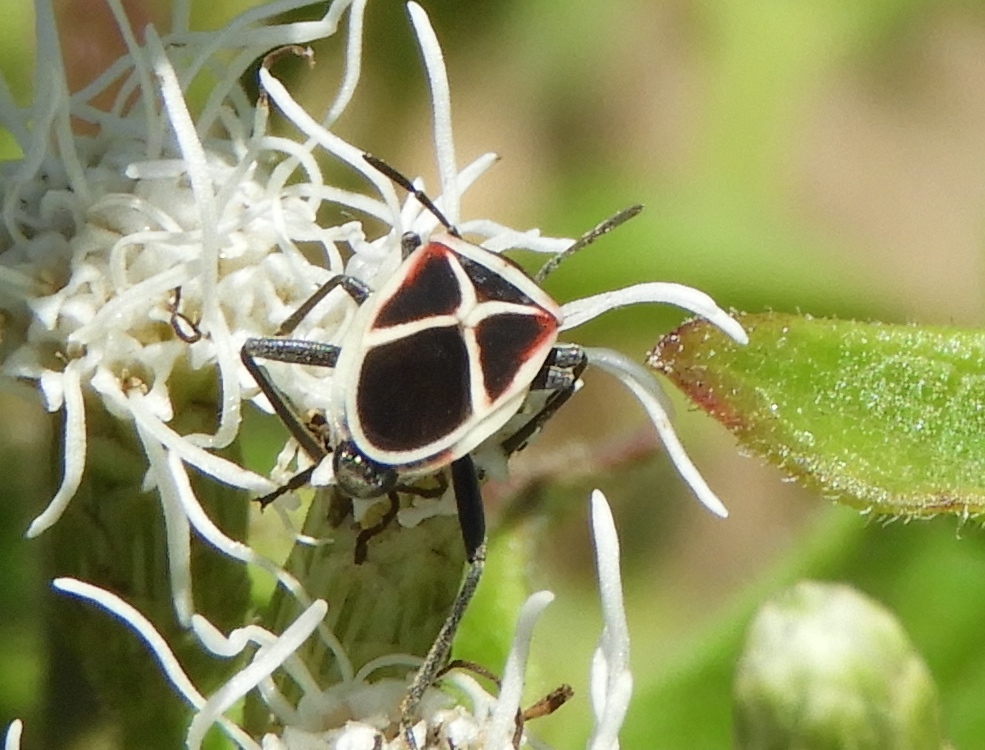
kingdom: Animalia
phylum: Arthropoda
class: Insecta
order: Hemiptera
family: Lygaeidae
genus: Ochrostomus
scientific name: Ochrostomus pulchellus
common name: Lygaeid bug
